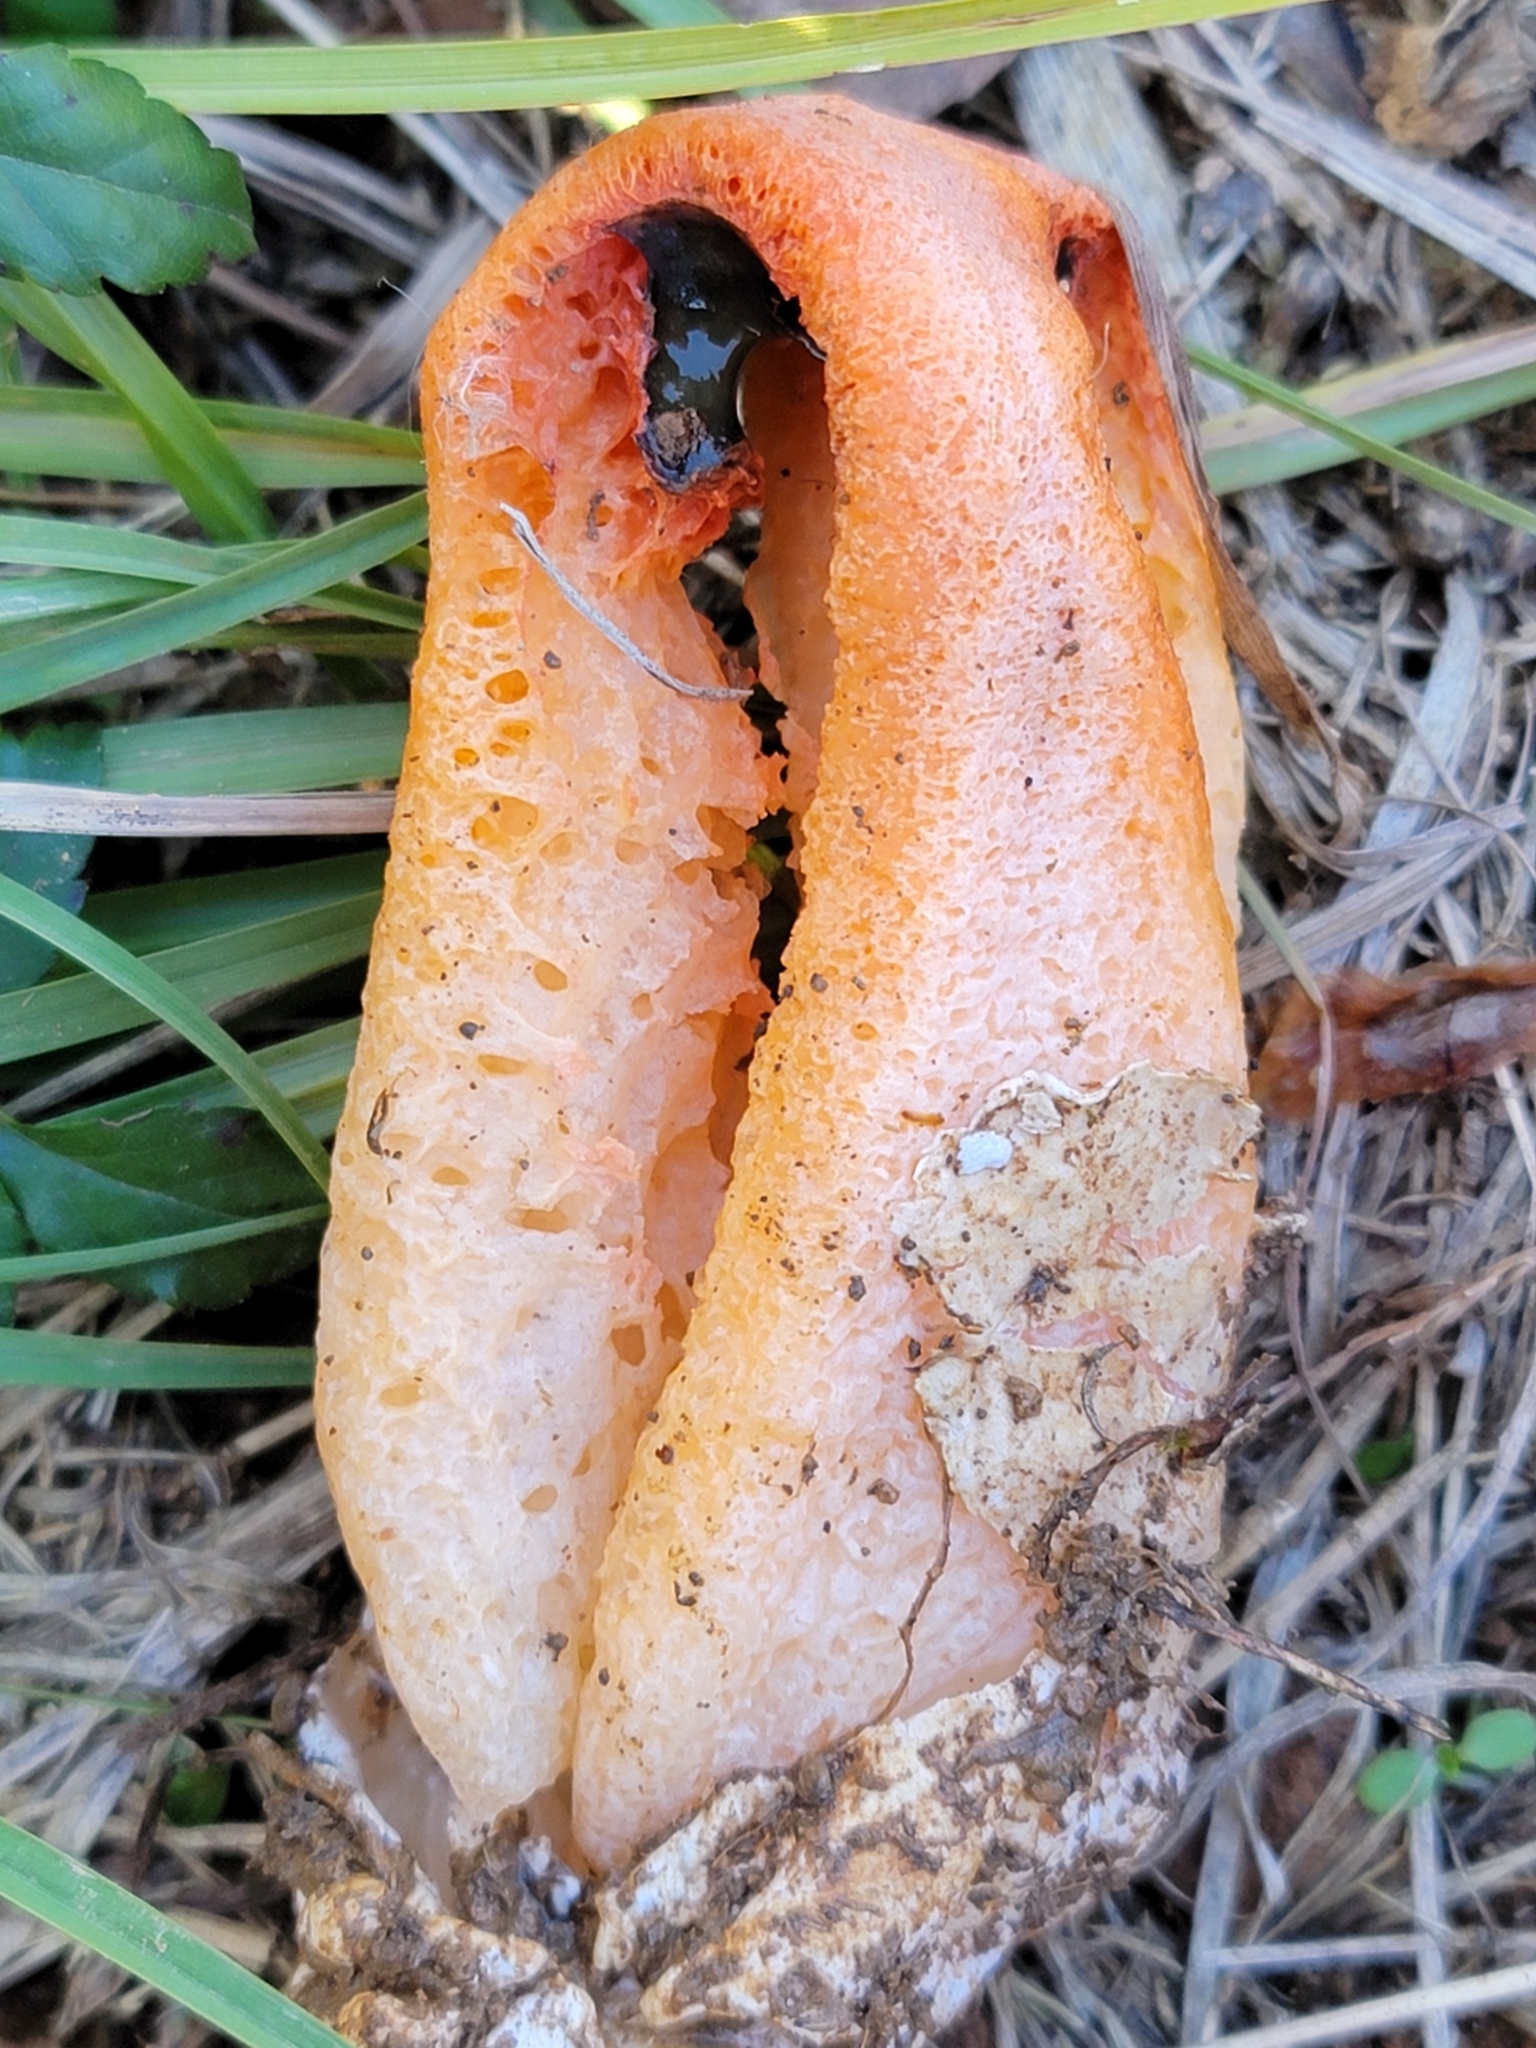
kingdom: Fungi
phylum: Basidiomycota
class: Agaricomycetes
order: Phallales
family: Phallaceae
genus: Clathrus
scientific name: Clathrus columnatus
